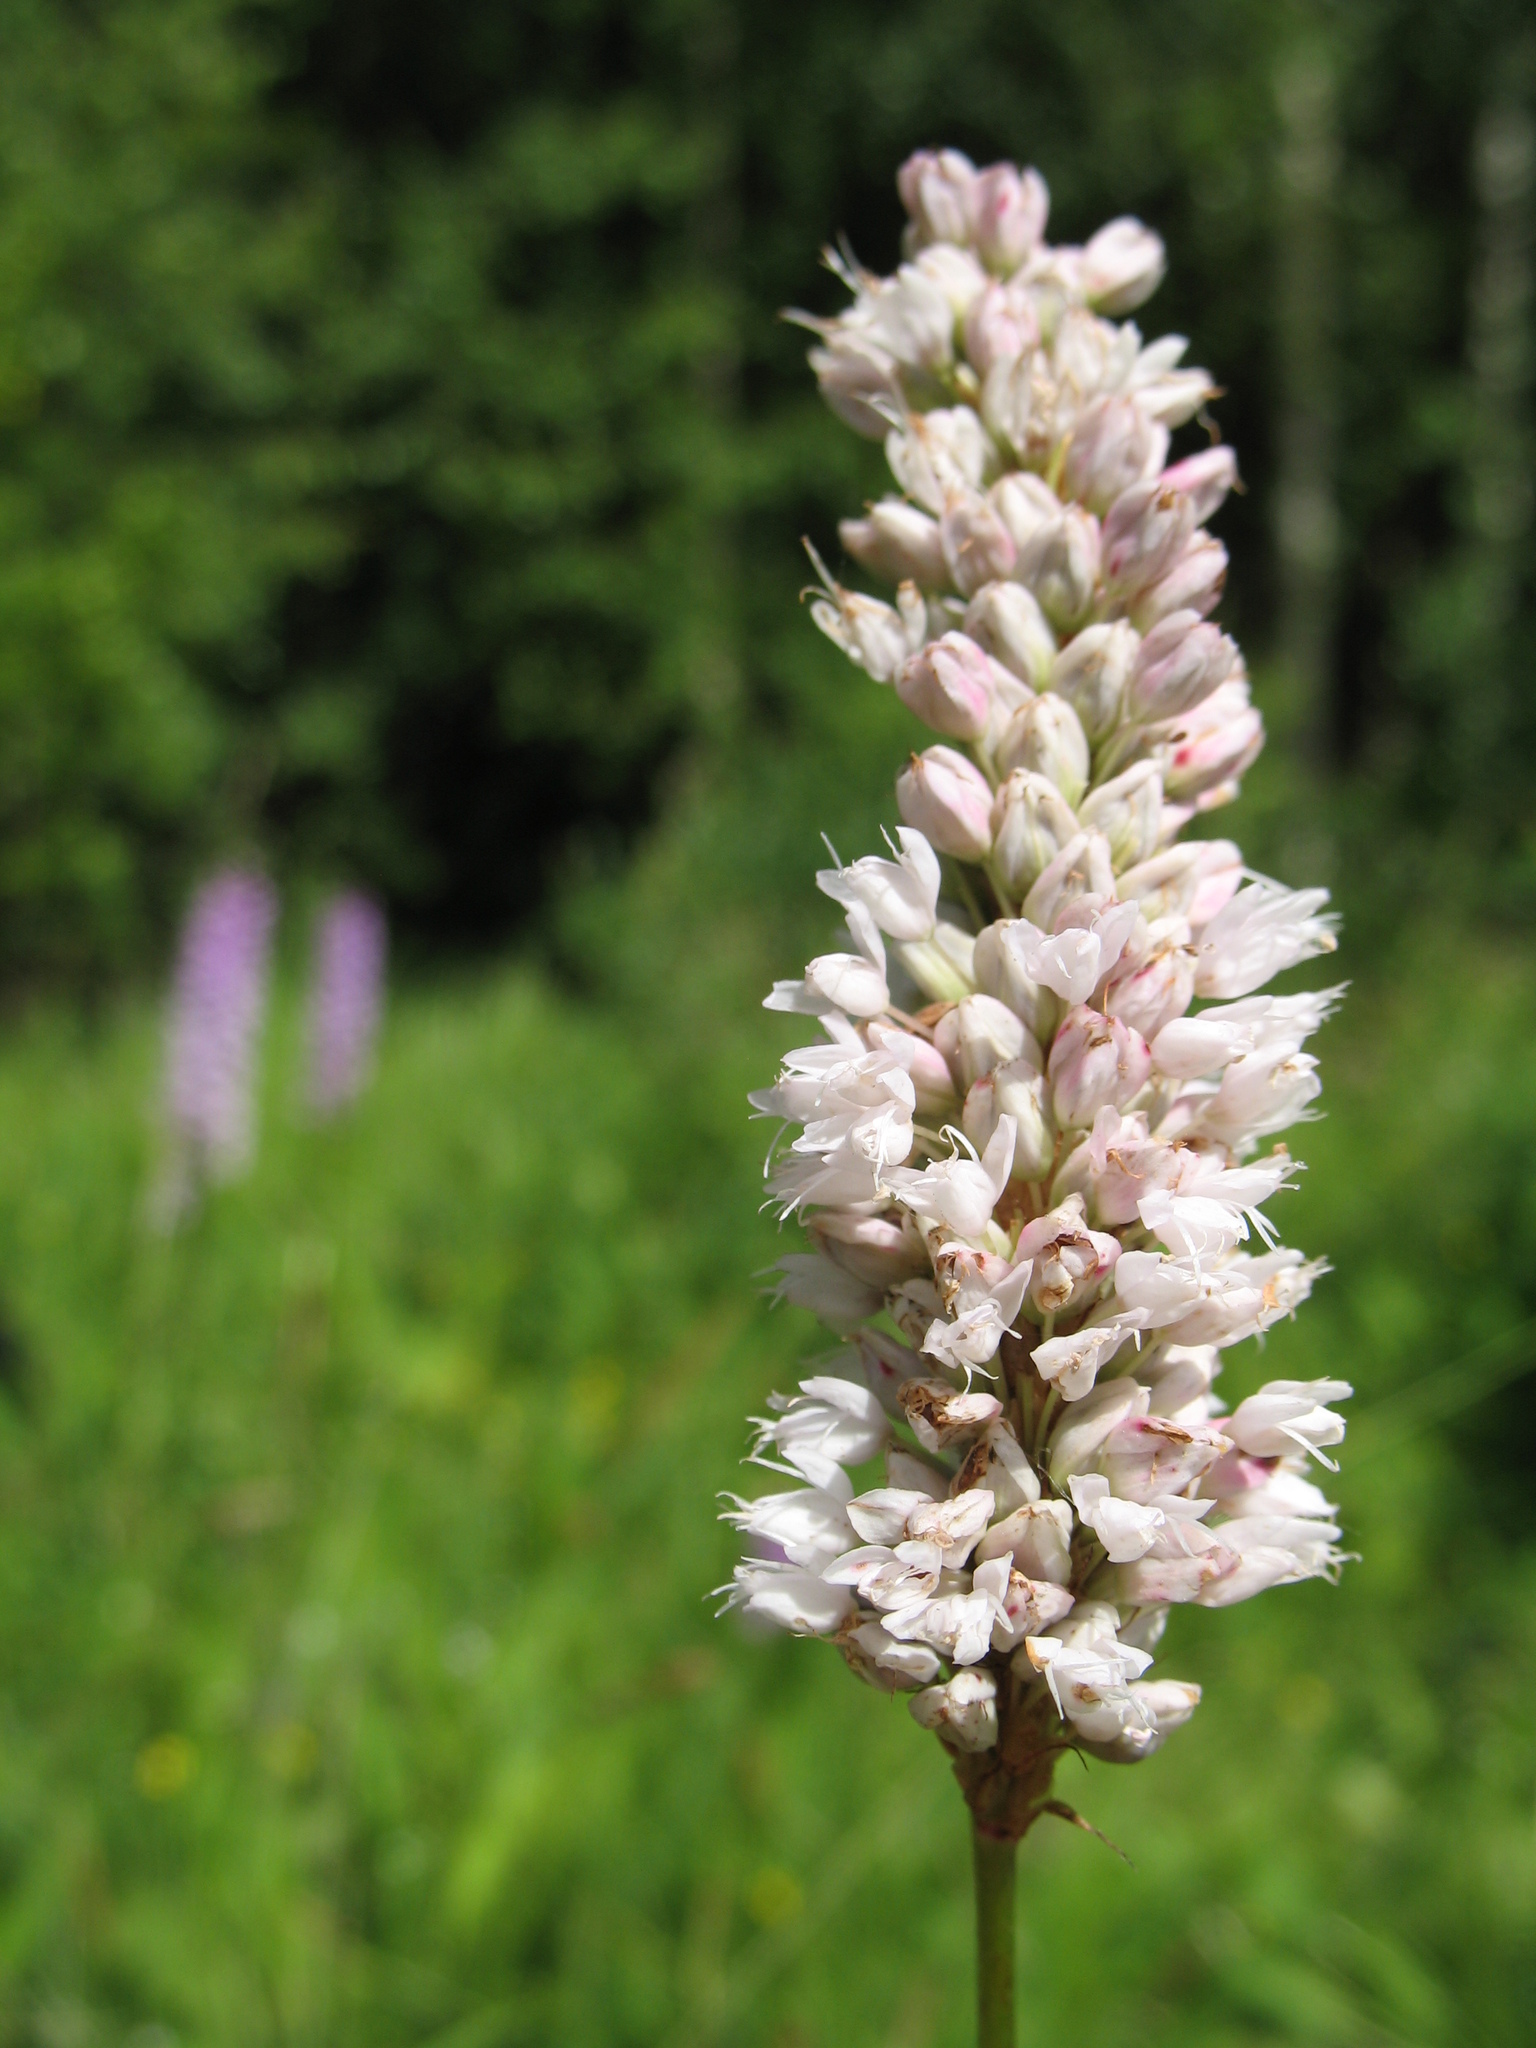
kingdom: Plantae
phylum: Tracheophyta
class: Magnoliopsida
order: Caryophyllales
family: Polygonaceae
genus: Bistorta
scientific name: Bistorta officinalis
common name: Common bistort
